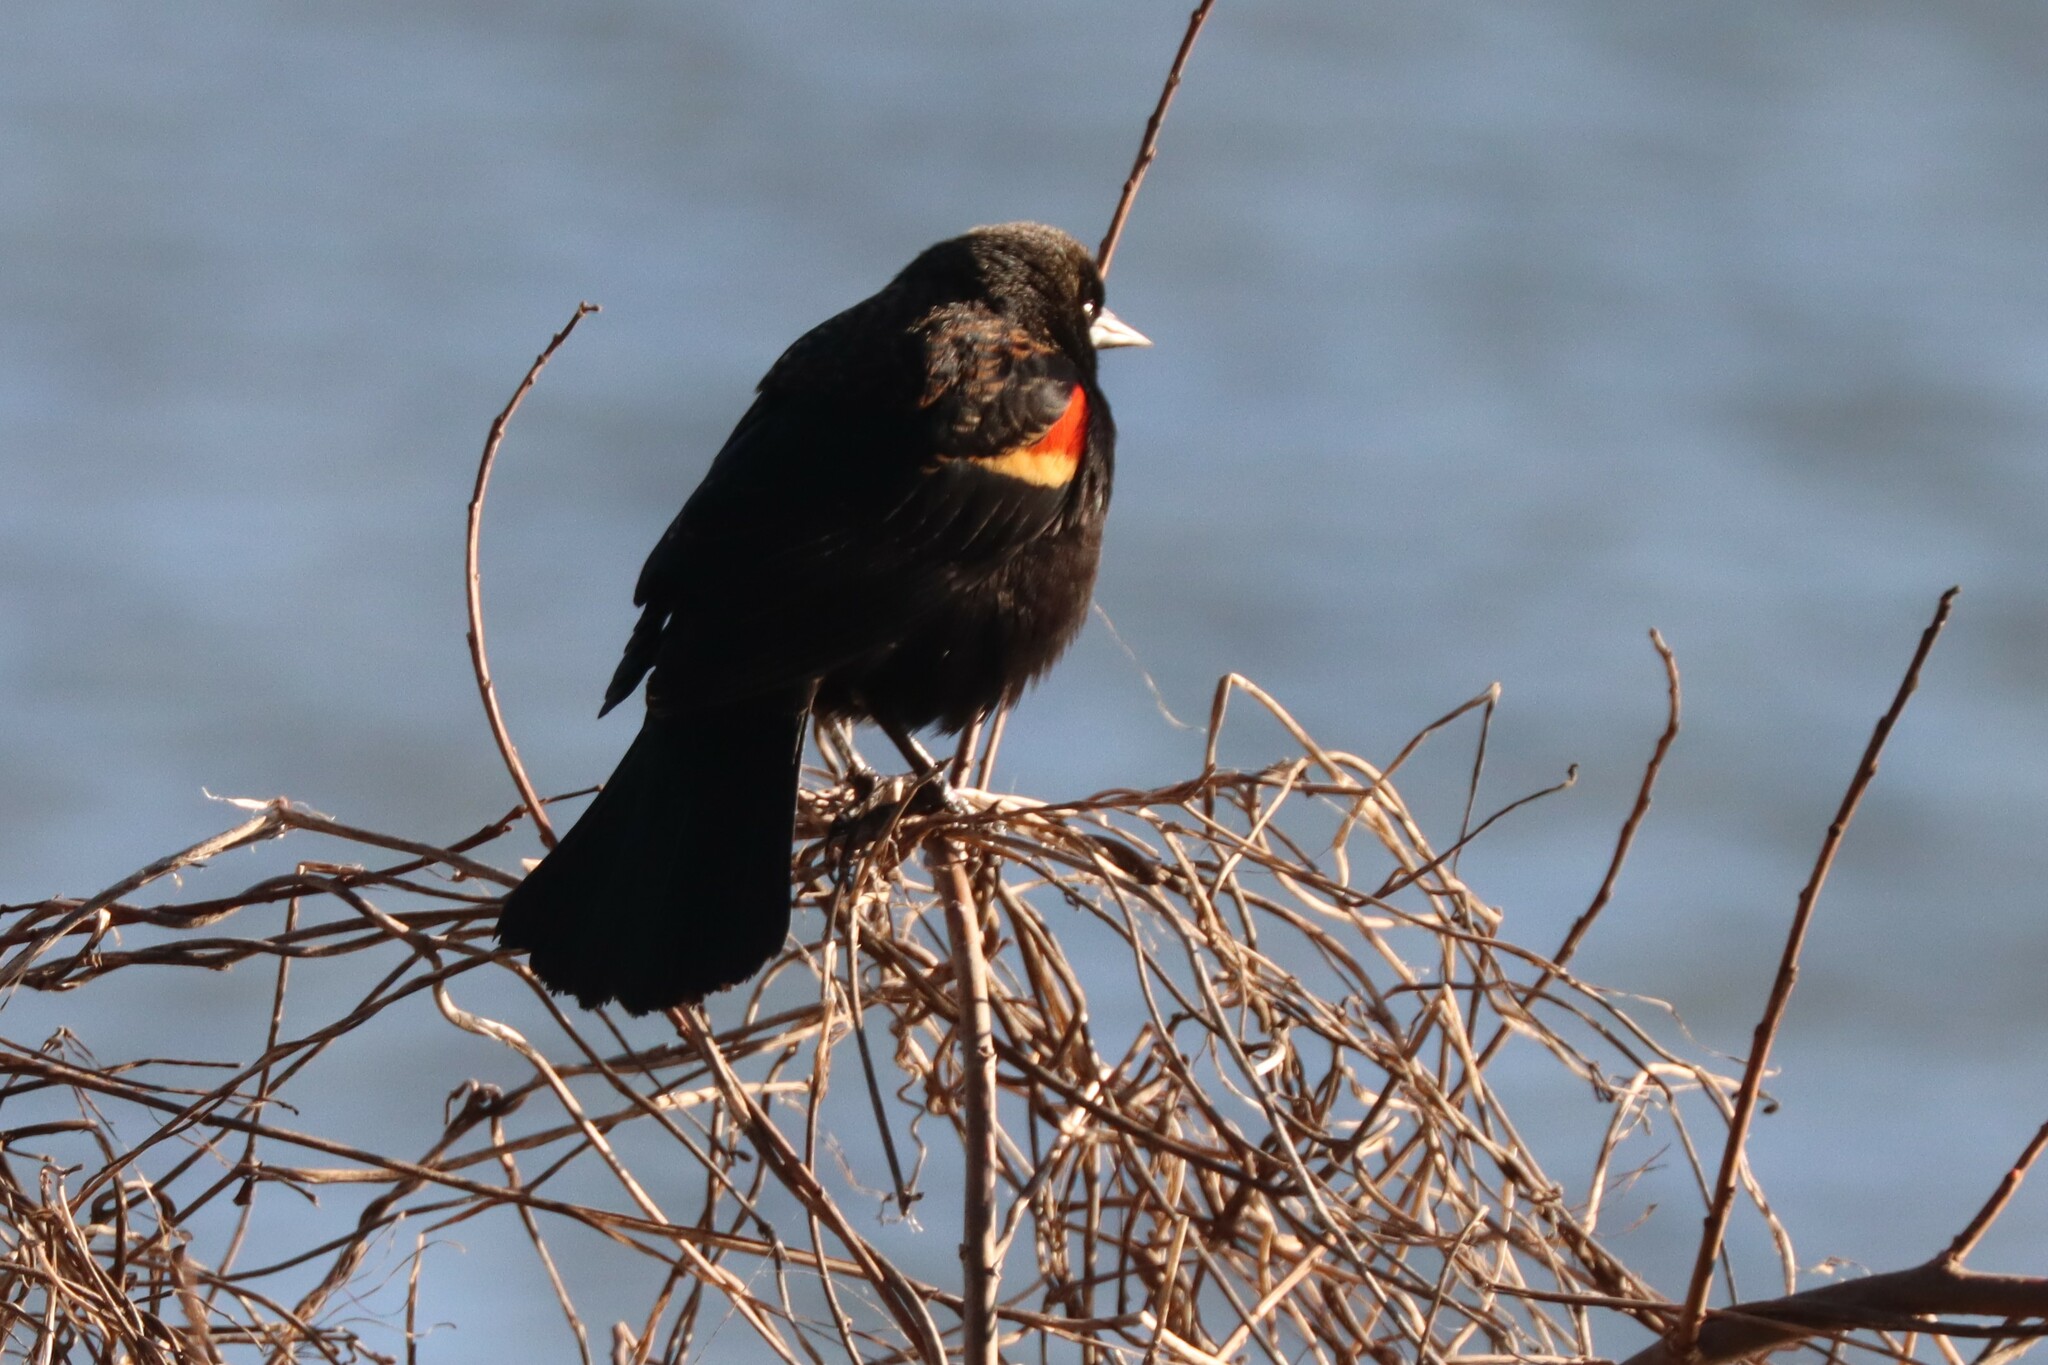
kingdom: Animalia
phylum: Chordata
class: Aves
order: Passeriformes
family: Icteridae
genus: Agelaius
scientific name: Agelaius phoeniceus
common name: Red-winged blackbird
